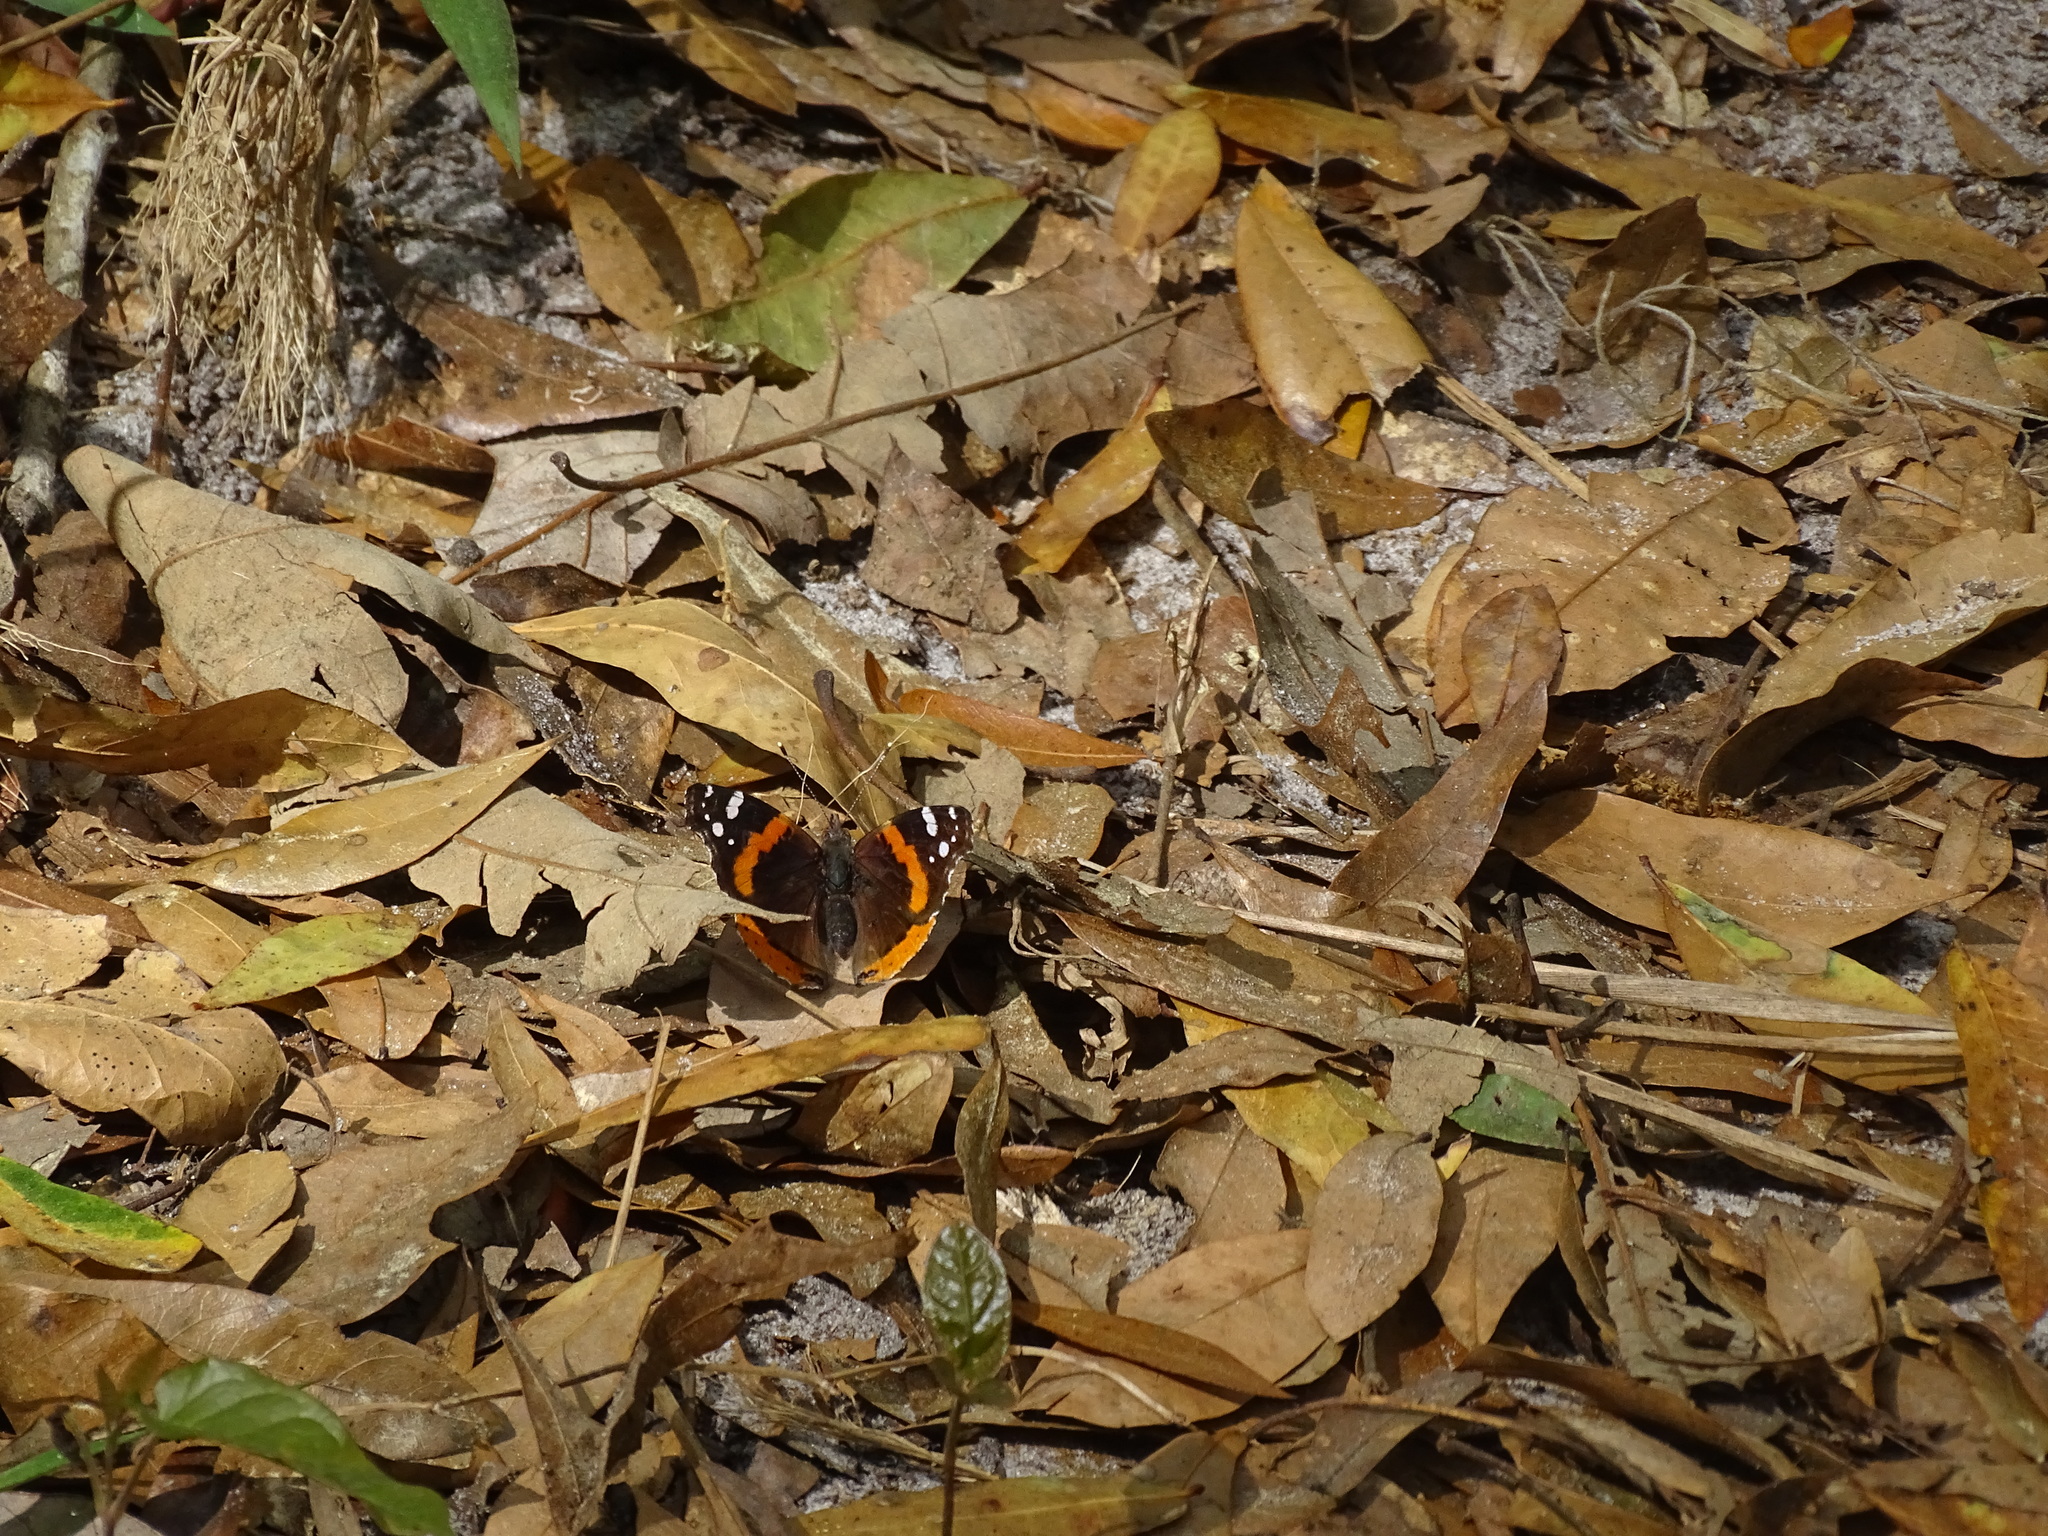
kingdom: Animalia
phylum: Arthropoda
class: Insecta
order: Lepidoptera
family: Nymphalidae
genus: Vanessa
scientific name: Vanessa atalanta
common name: Red admiral
